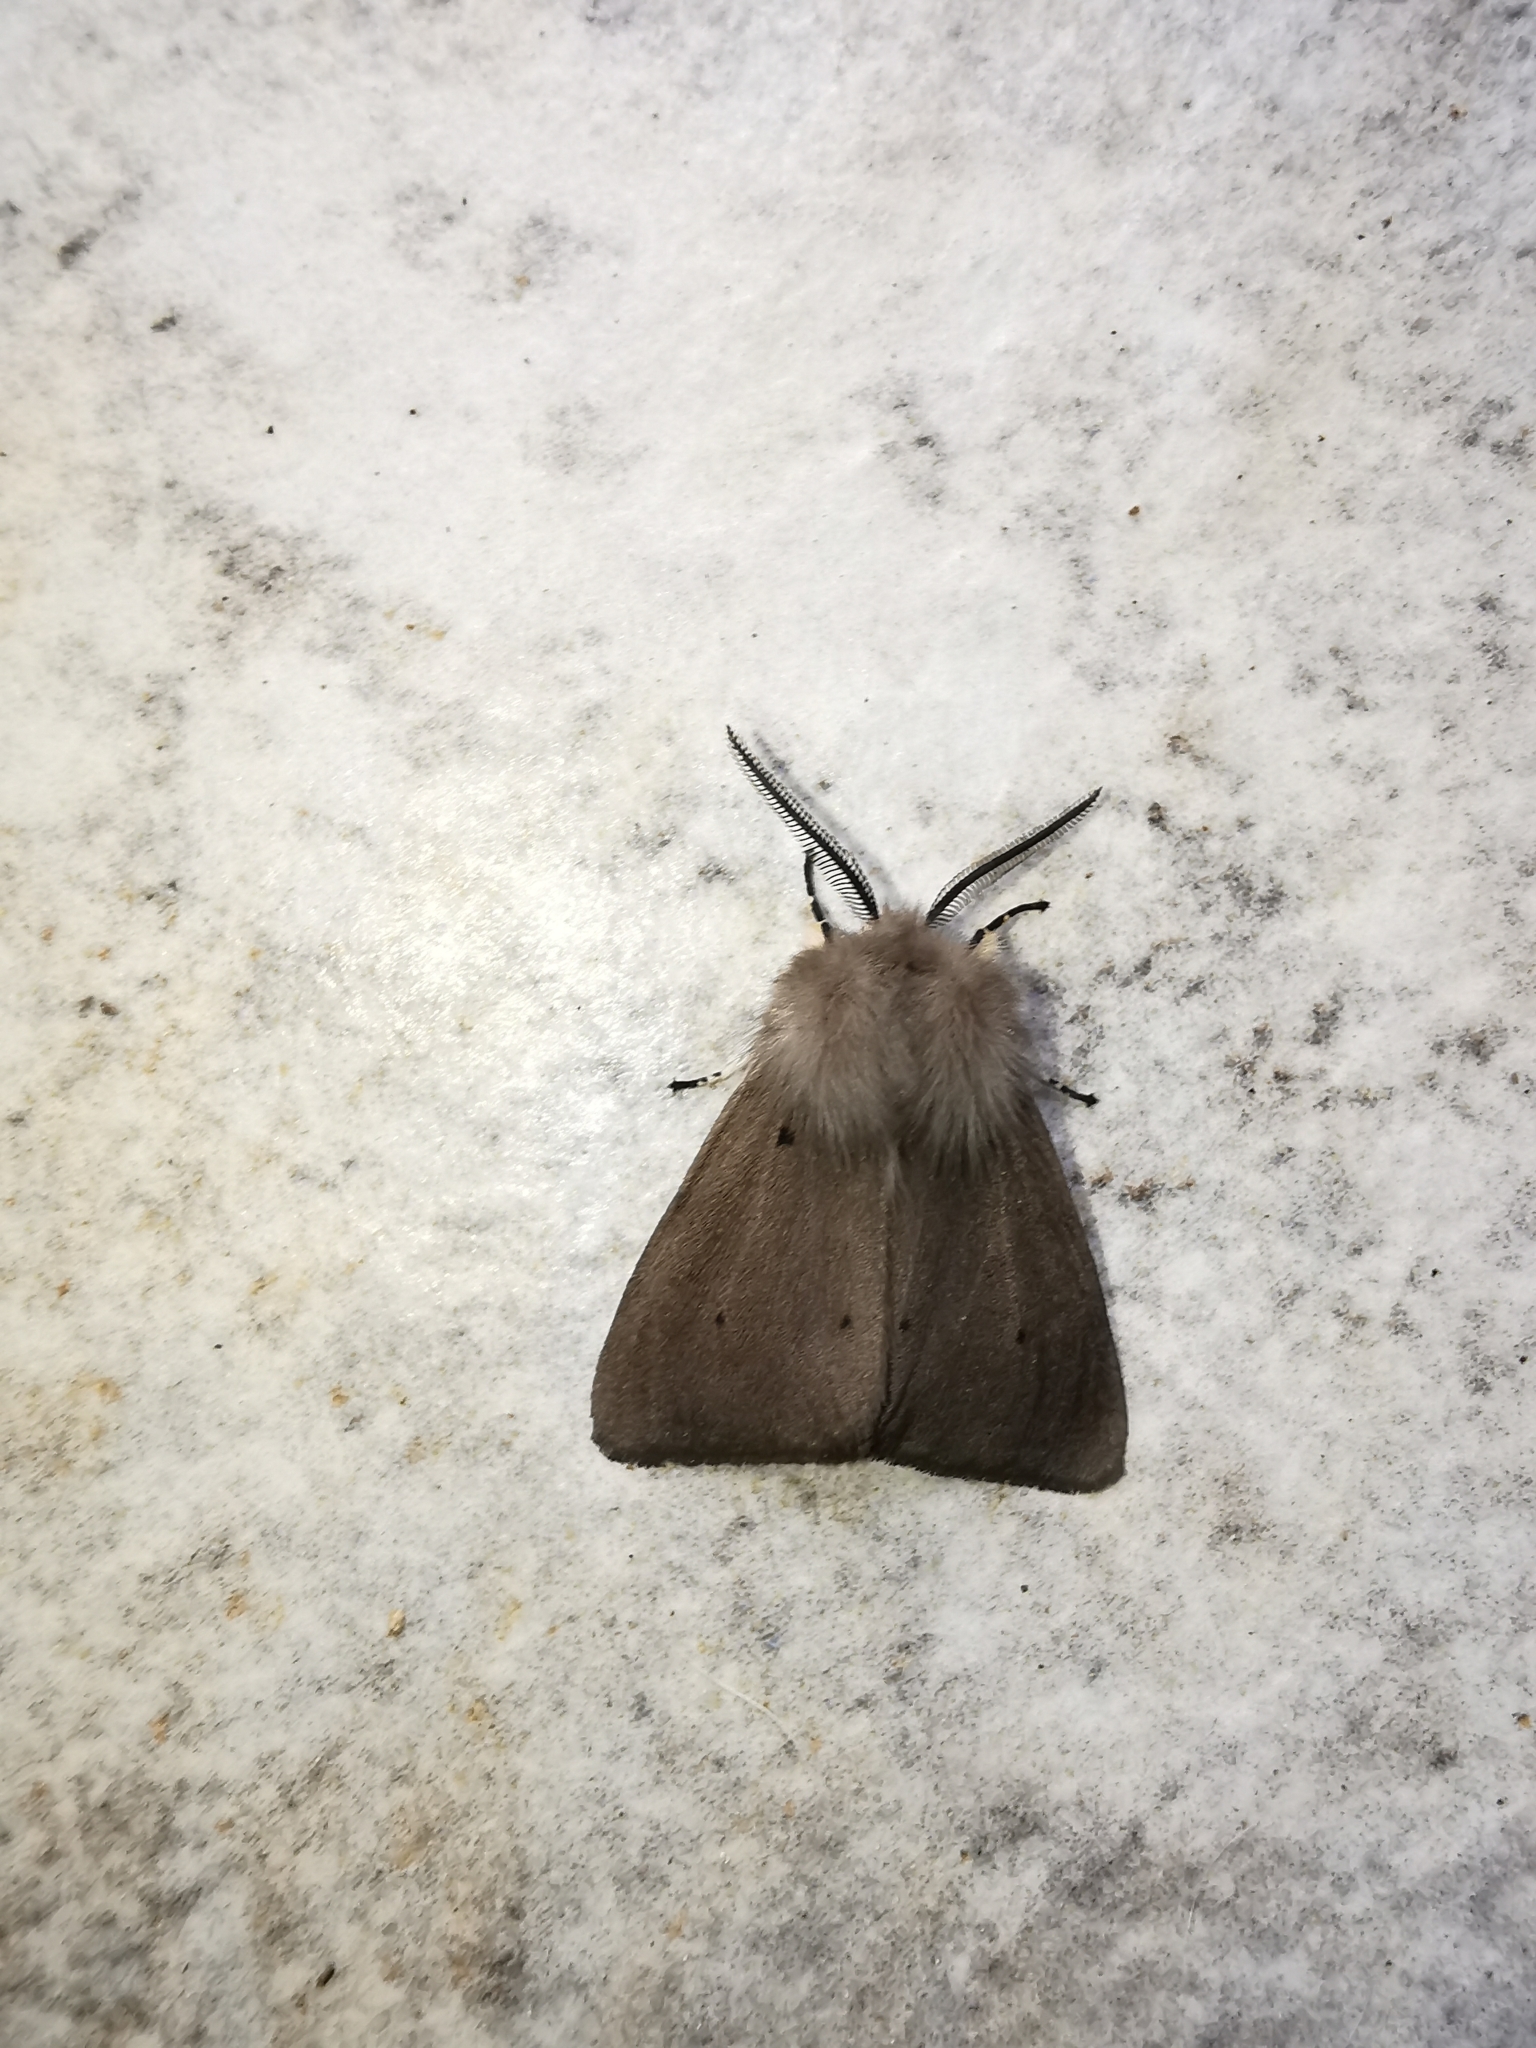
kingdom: Animalia
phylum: Arthropoda
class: Insecta
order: Lepidoptera
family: Erebidae
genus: Diaphora
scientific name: Diaphora mendica
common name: Muslin moth
